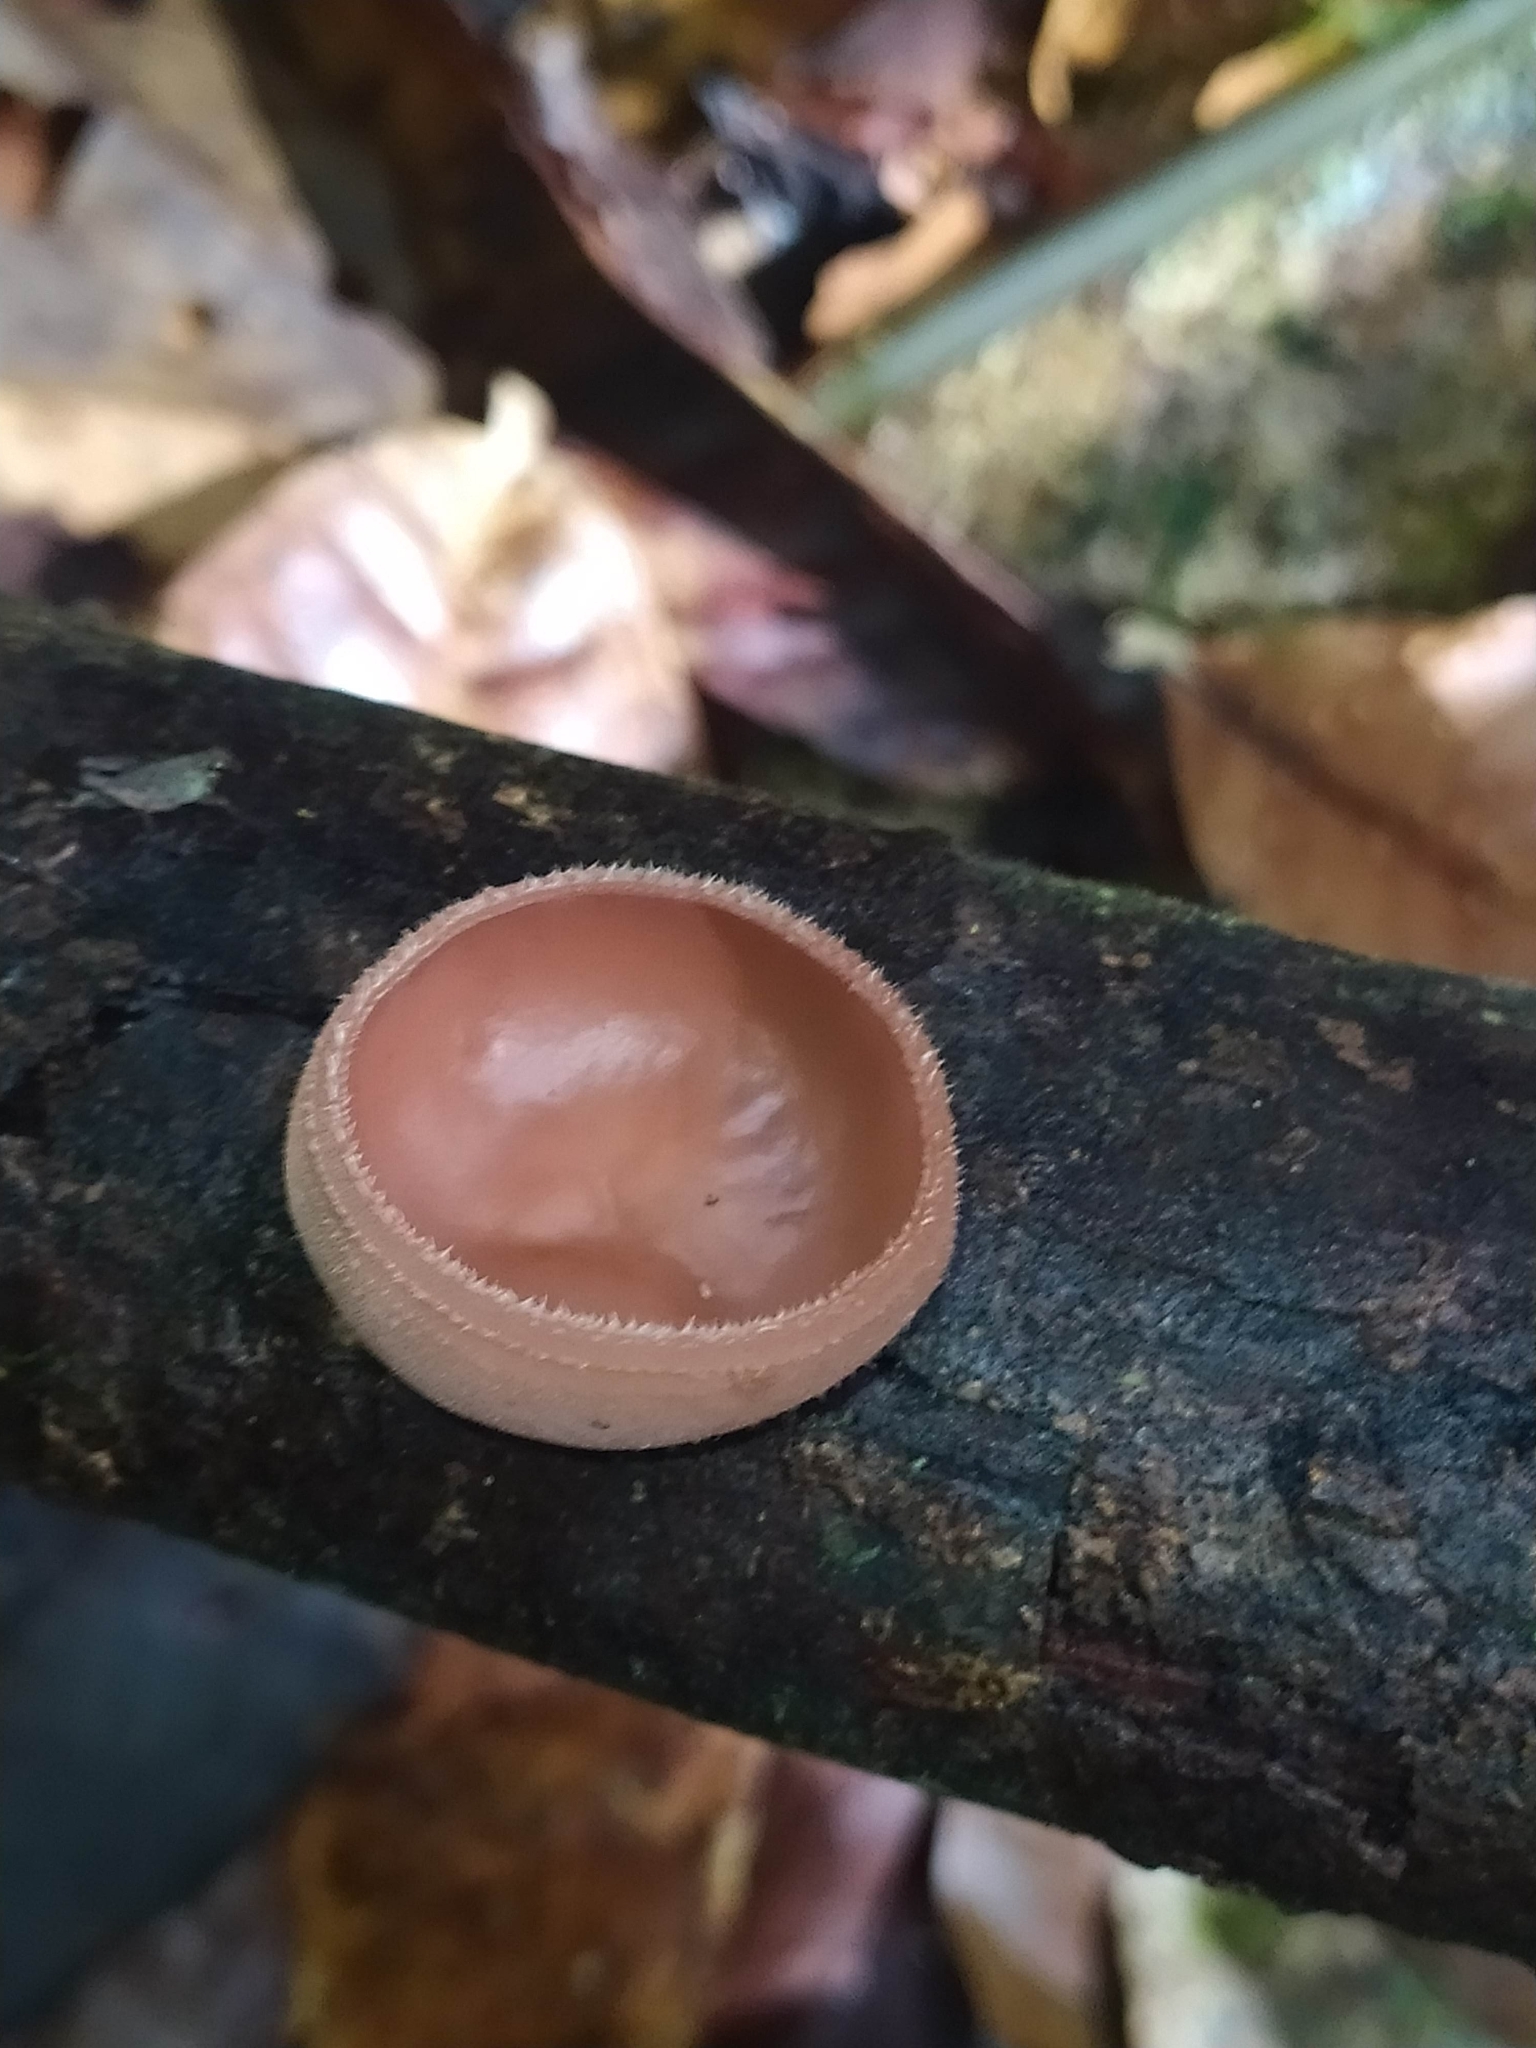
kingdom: Fungi
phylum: Ascomycota
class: Pezizomycetes
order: Pezizales
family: Sarcoscyphaceae
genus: Cookeina
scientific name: Cookeina speciosa
